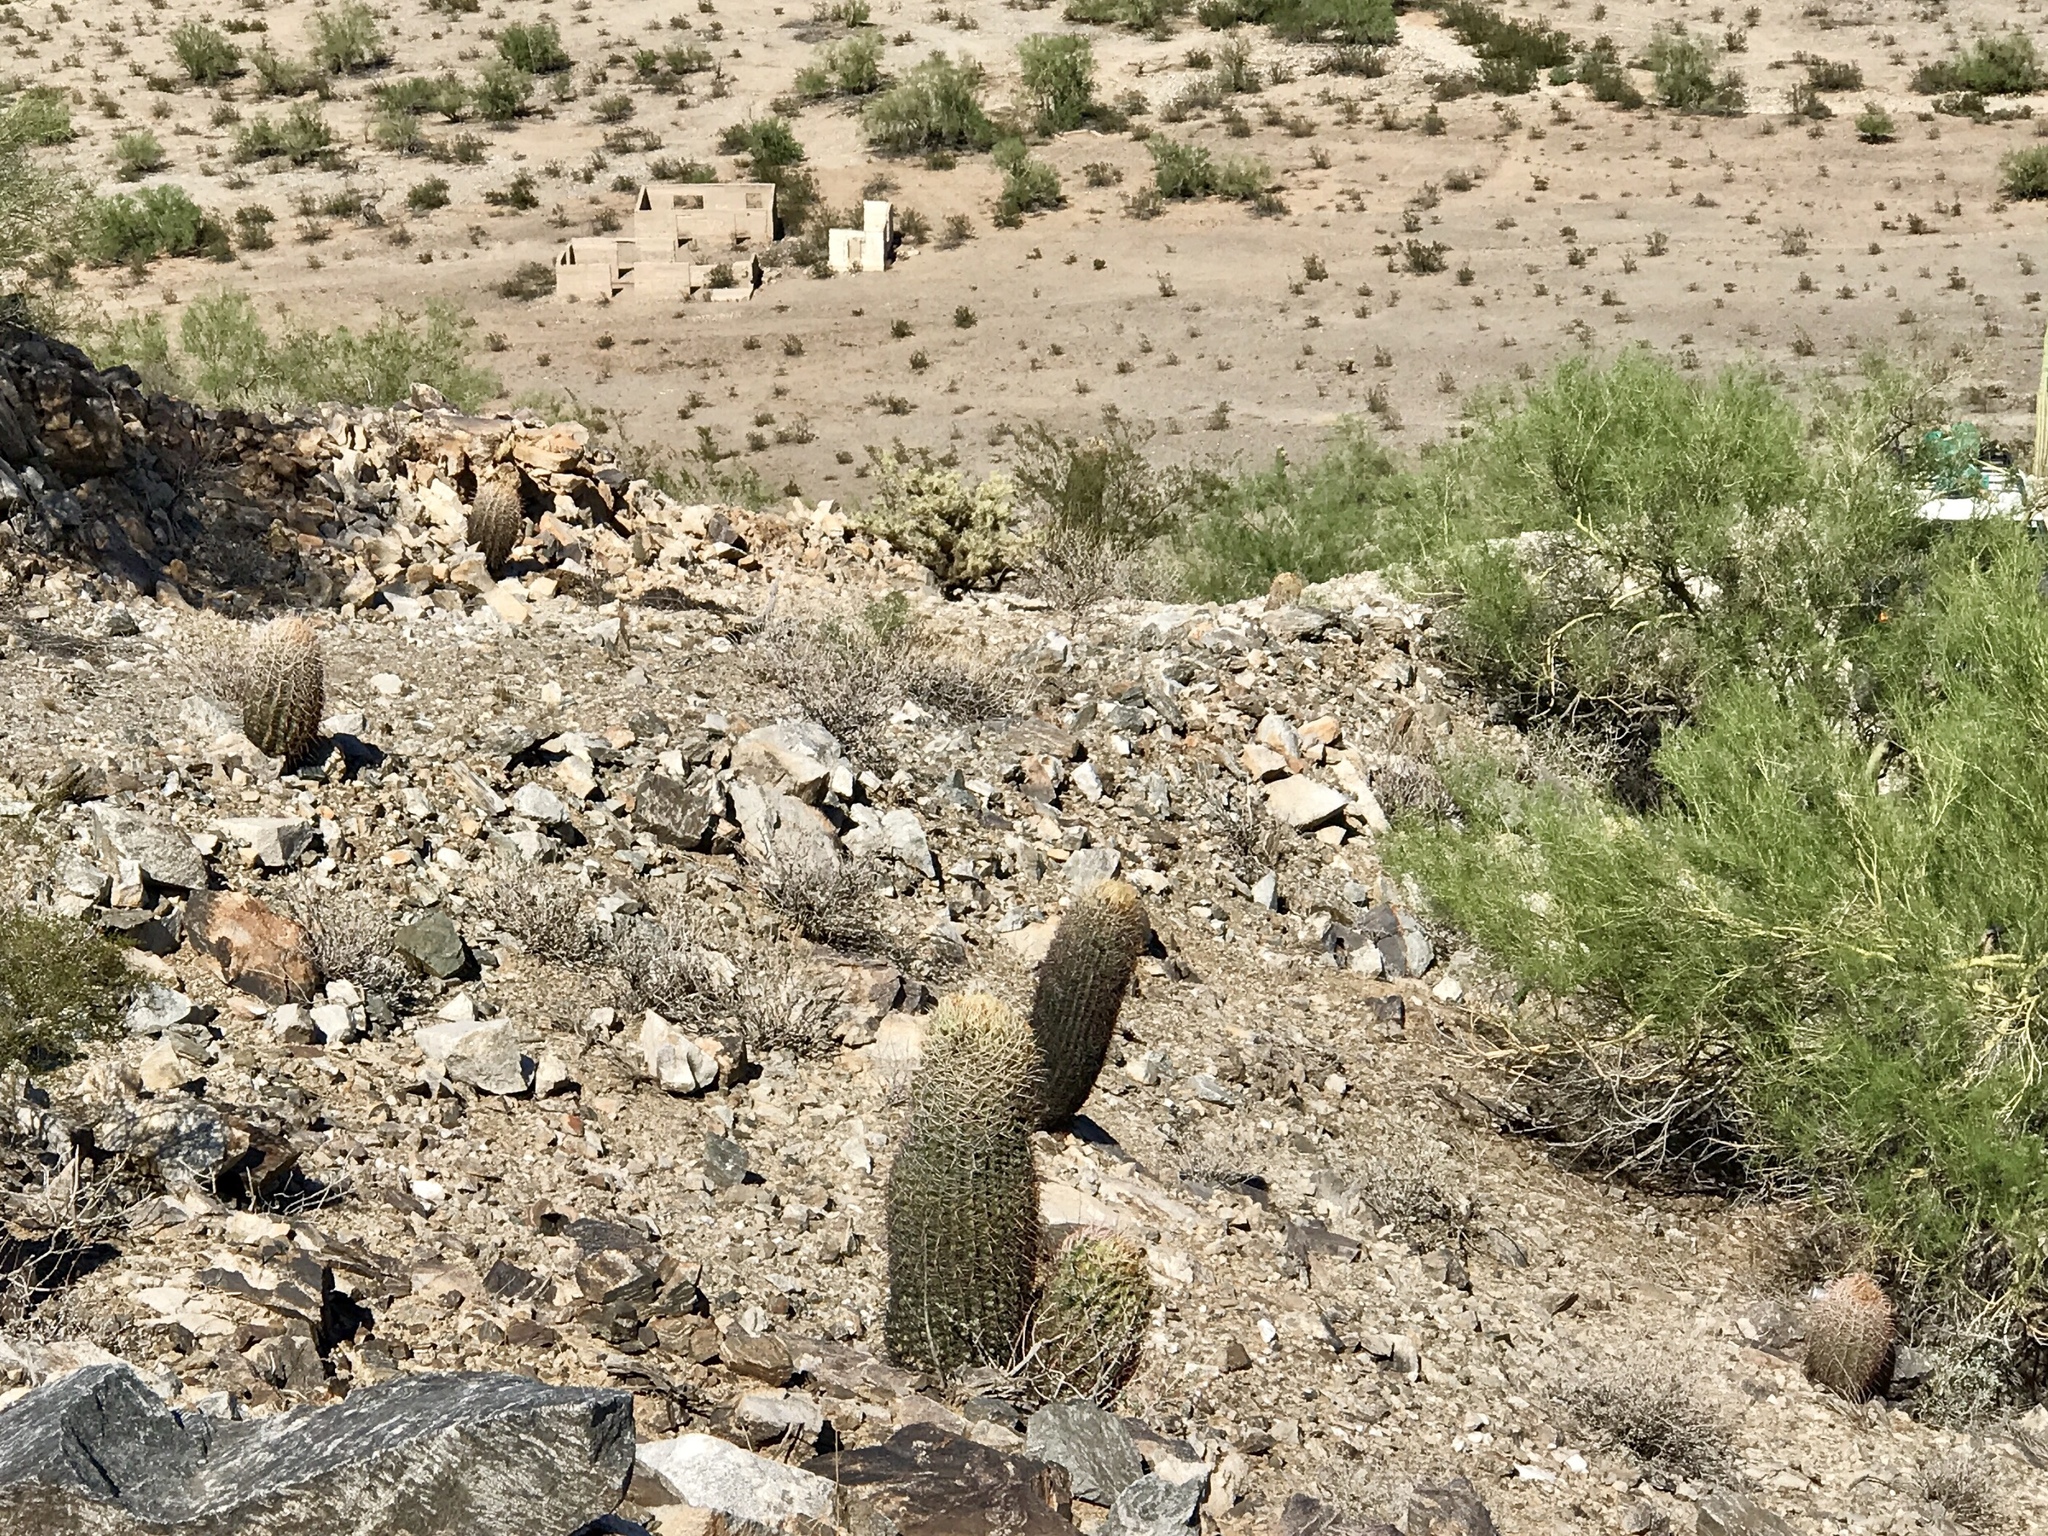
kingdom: Plantae
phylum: Tracheophyta
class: Magnoliopsida
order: Caryophyllales
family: Cactaceae
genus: Ferocactus
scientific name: Ferocactus cylindraceus
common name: California barrel cactus
